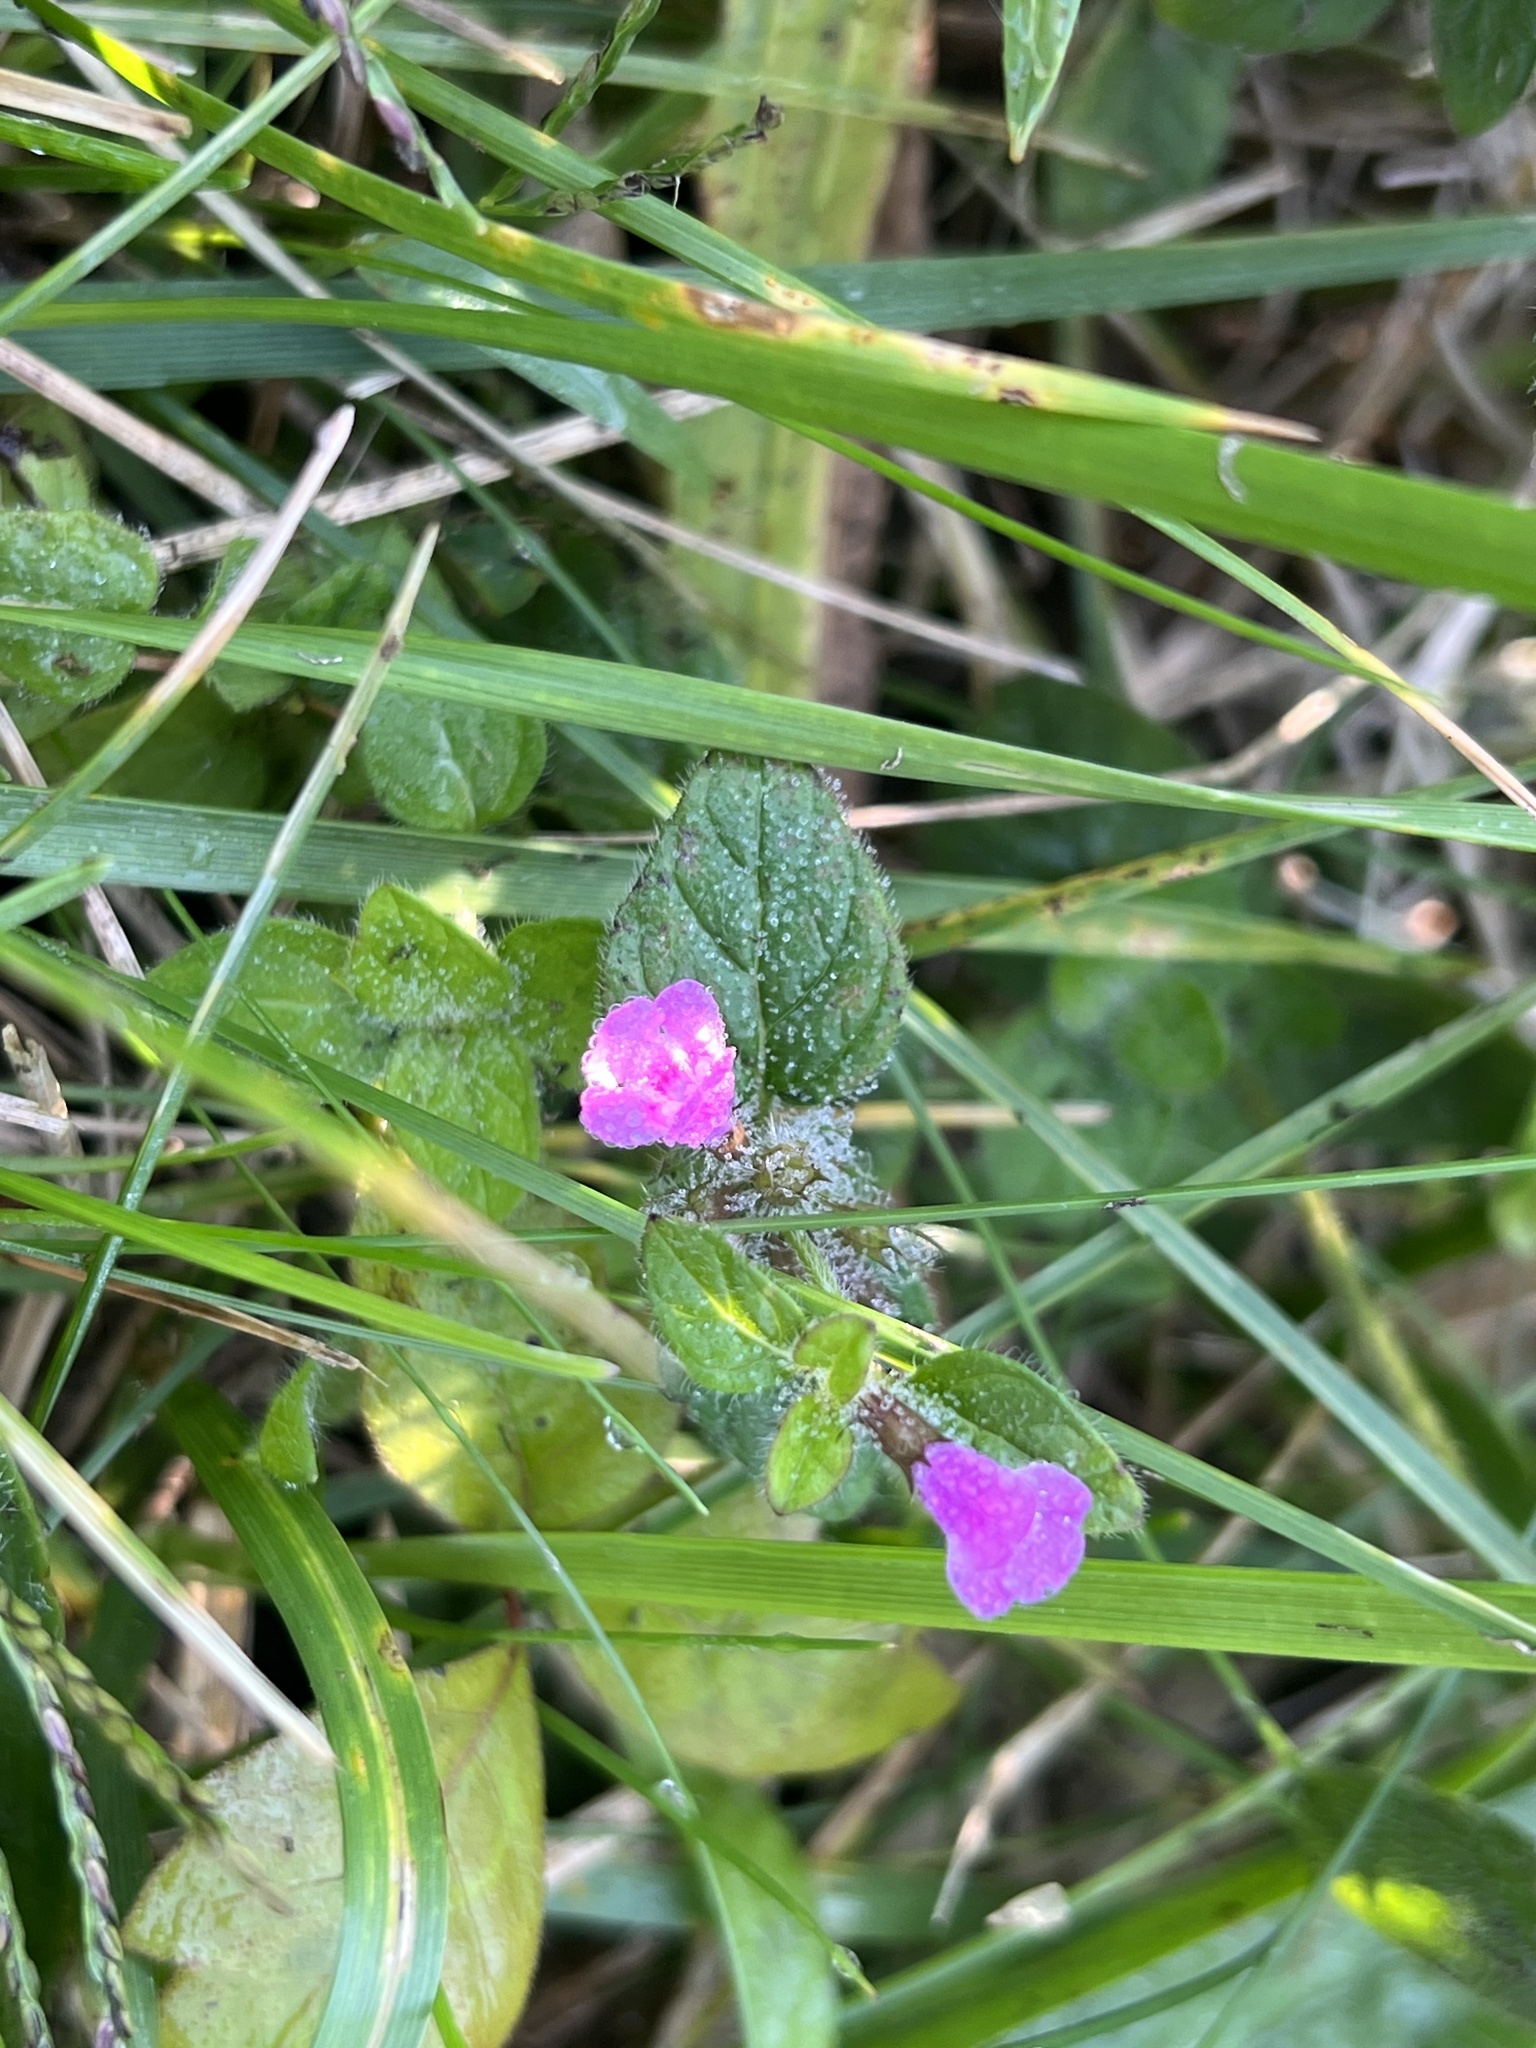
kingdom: Plantae
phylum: Tracheophyta
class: Magnoliopsida
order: Lamiales
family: Lamiaceae
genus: Clinopodium
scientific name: Clinopodium vulgare
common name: Wild basil
